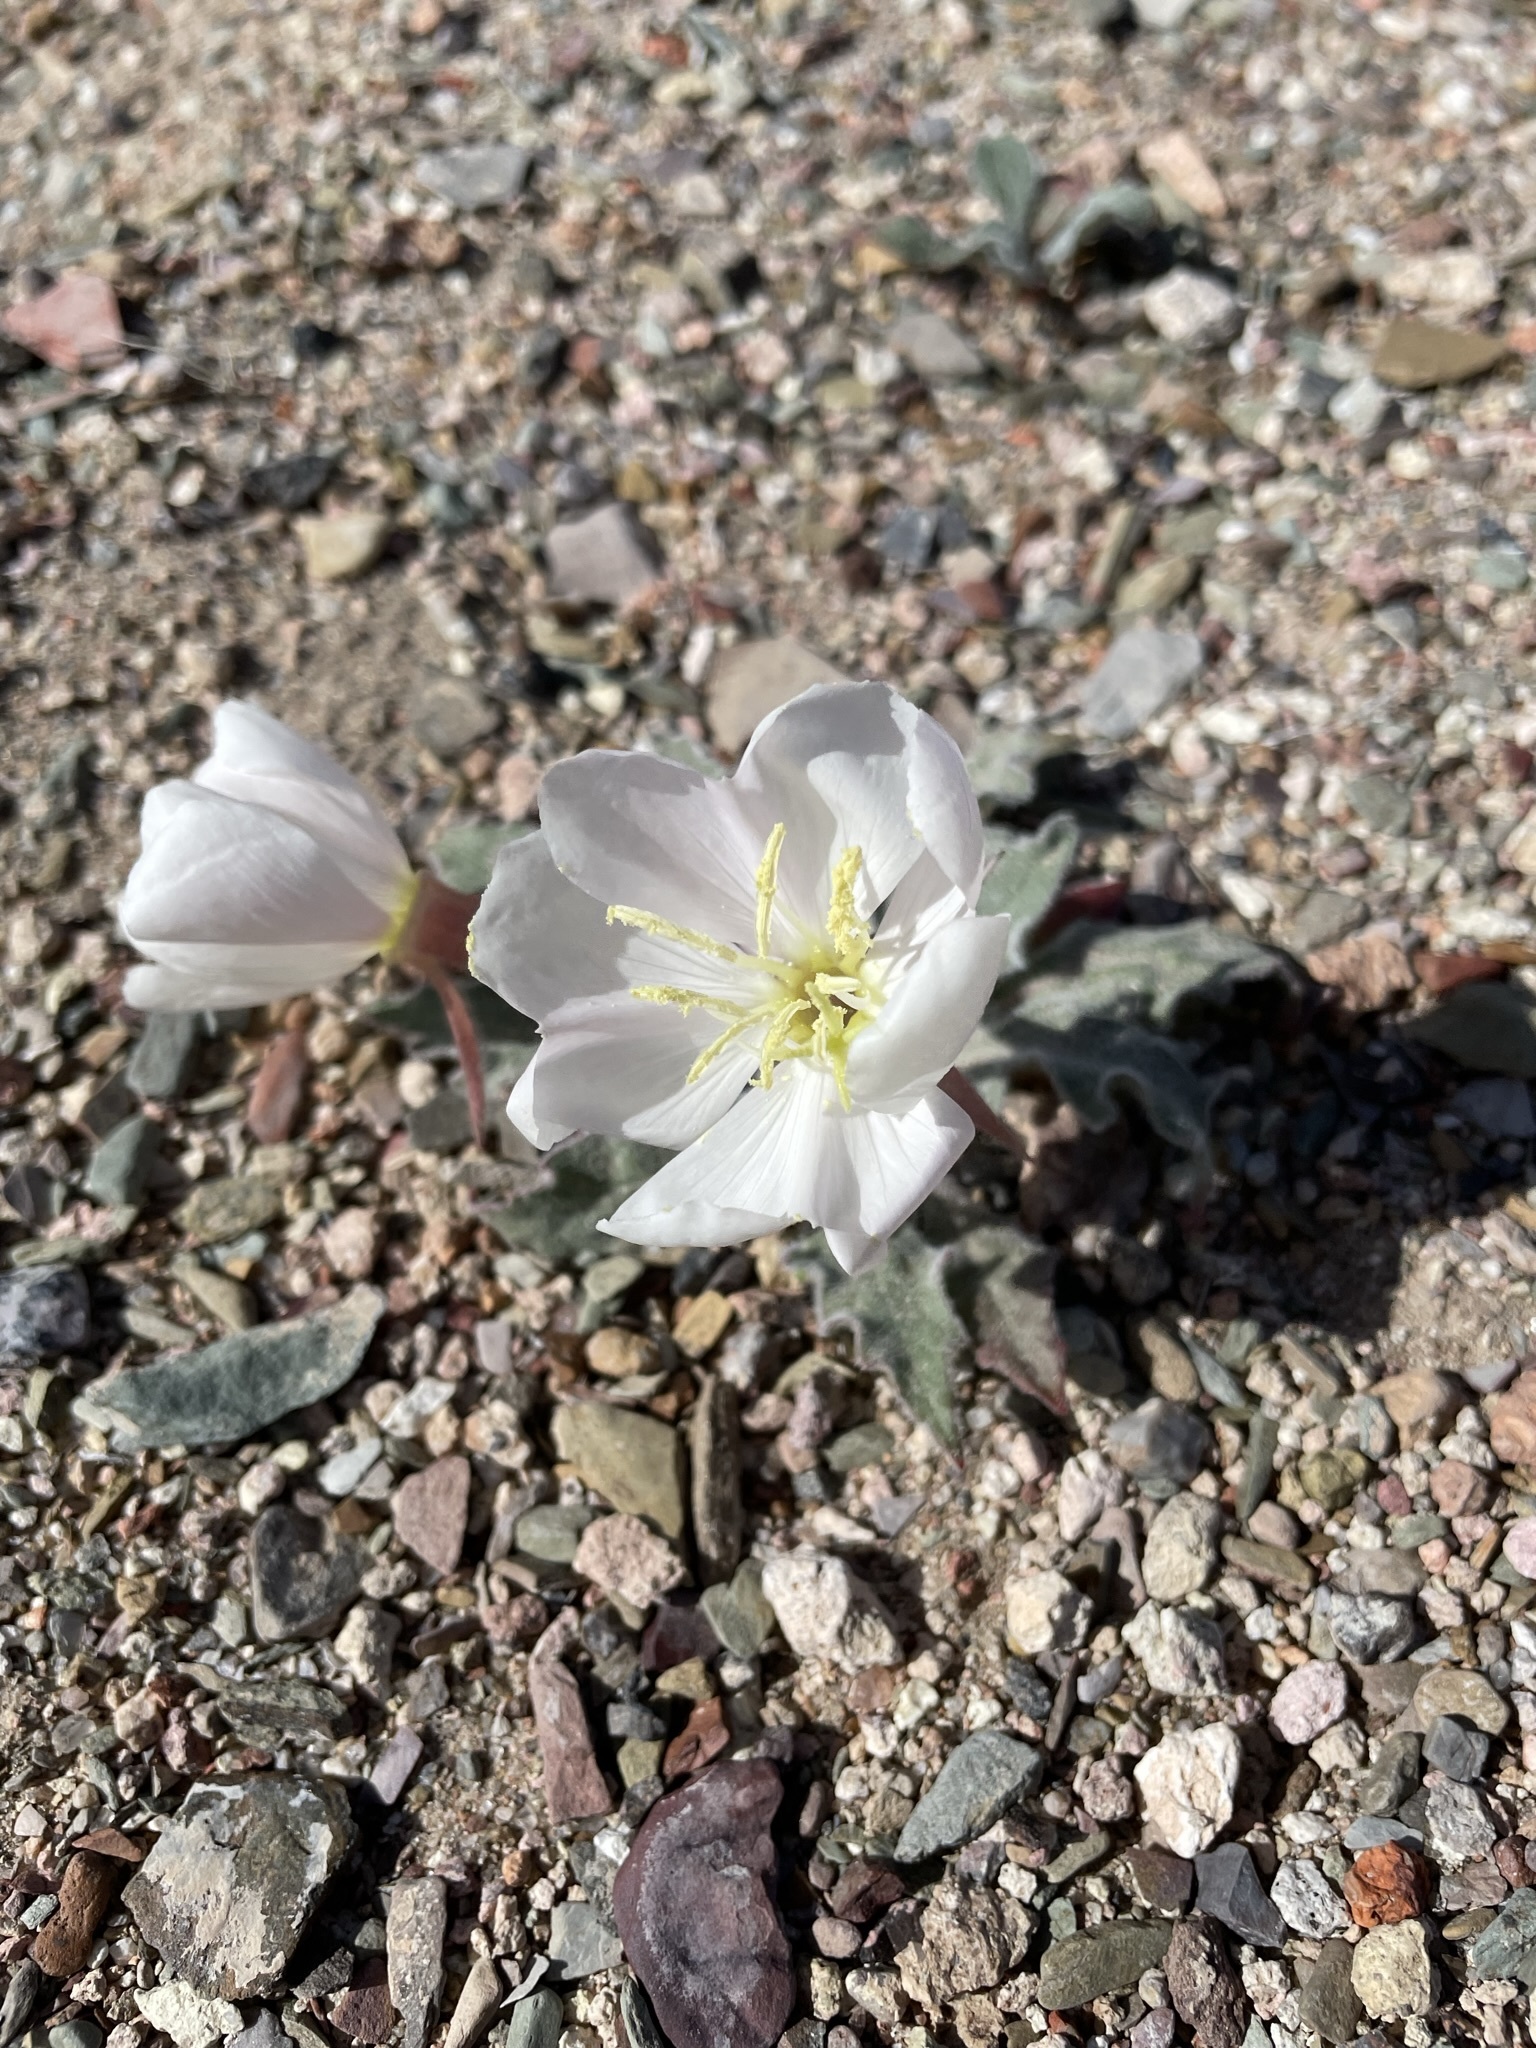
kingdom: Plantae
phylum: Tracheophyta
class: Magnoliopsida
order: Myrtales
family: Onagraceae
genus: Oenothera
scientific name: Oenothera cespitosa
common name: Tufted evening-primrose
